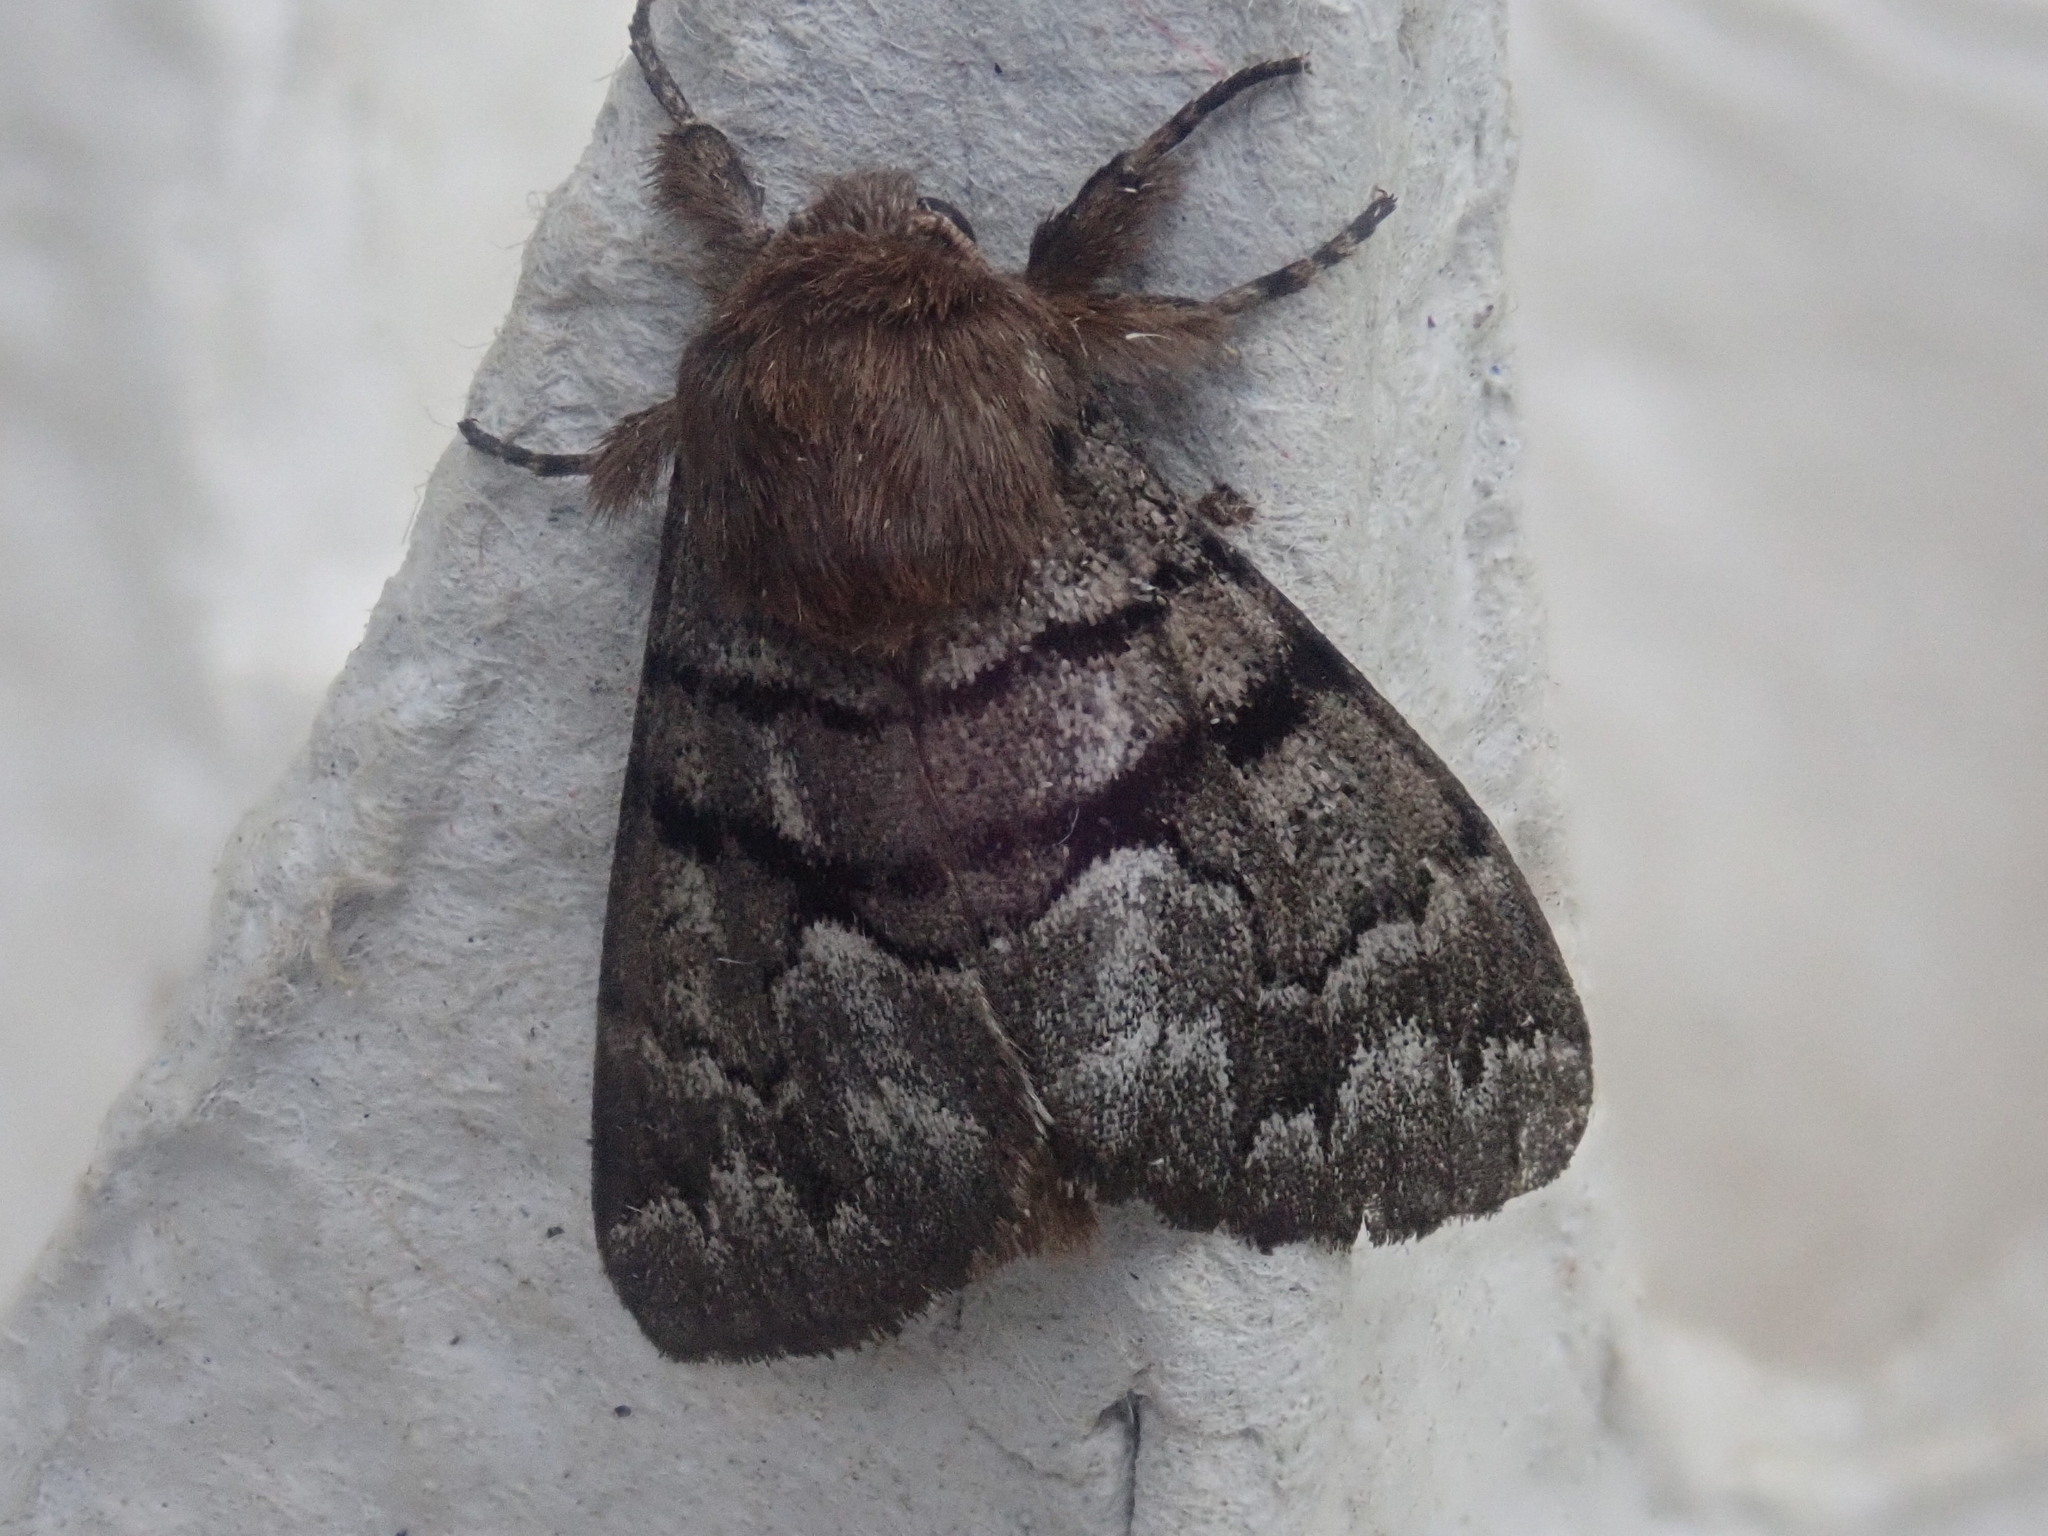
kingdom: Animalia
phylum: Arthropoda
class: Insecta
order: Lepidoptera
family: Noctuidae
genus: Panthea
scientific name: Panthea furcilla
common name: Eastern panthea moth
